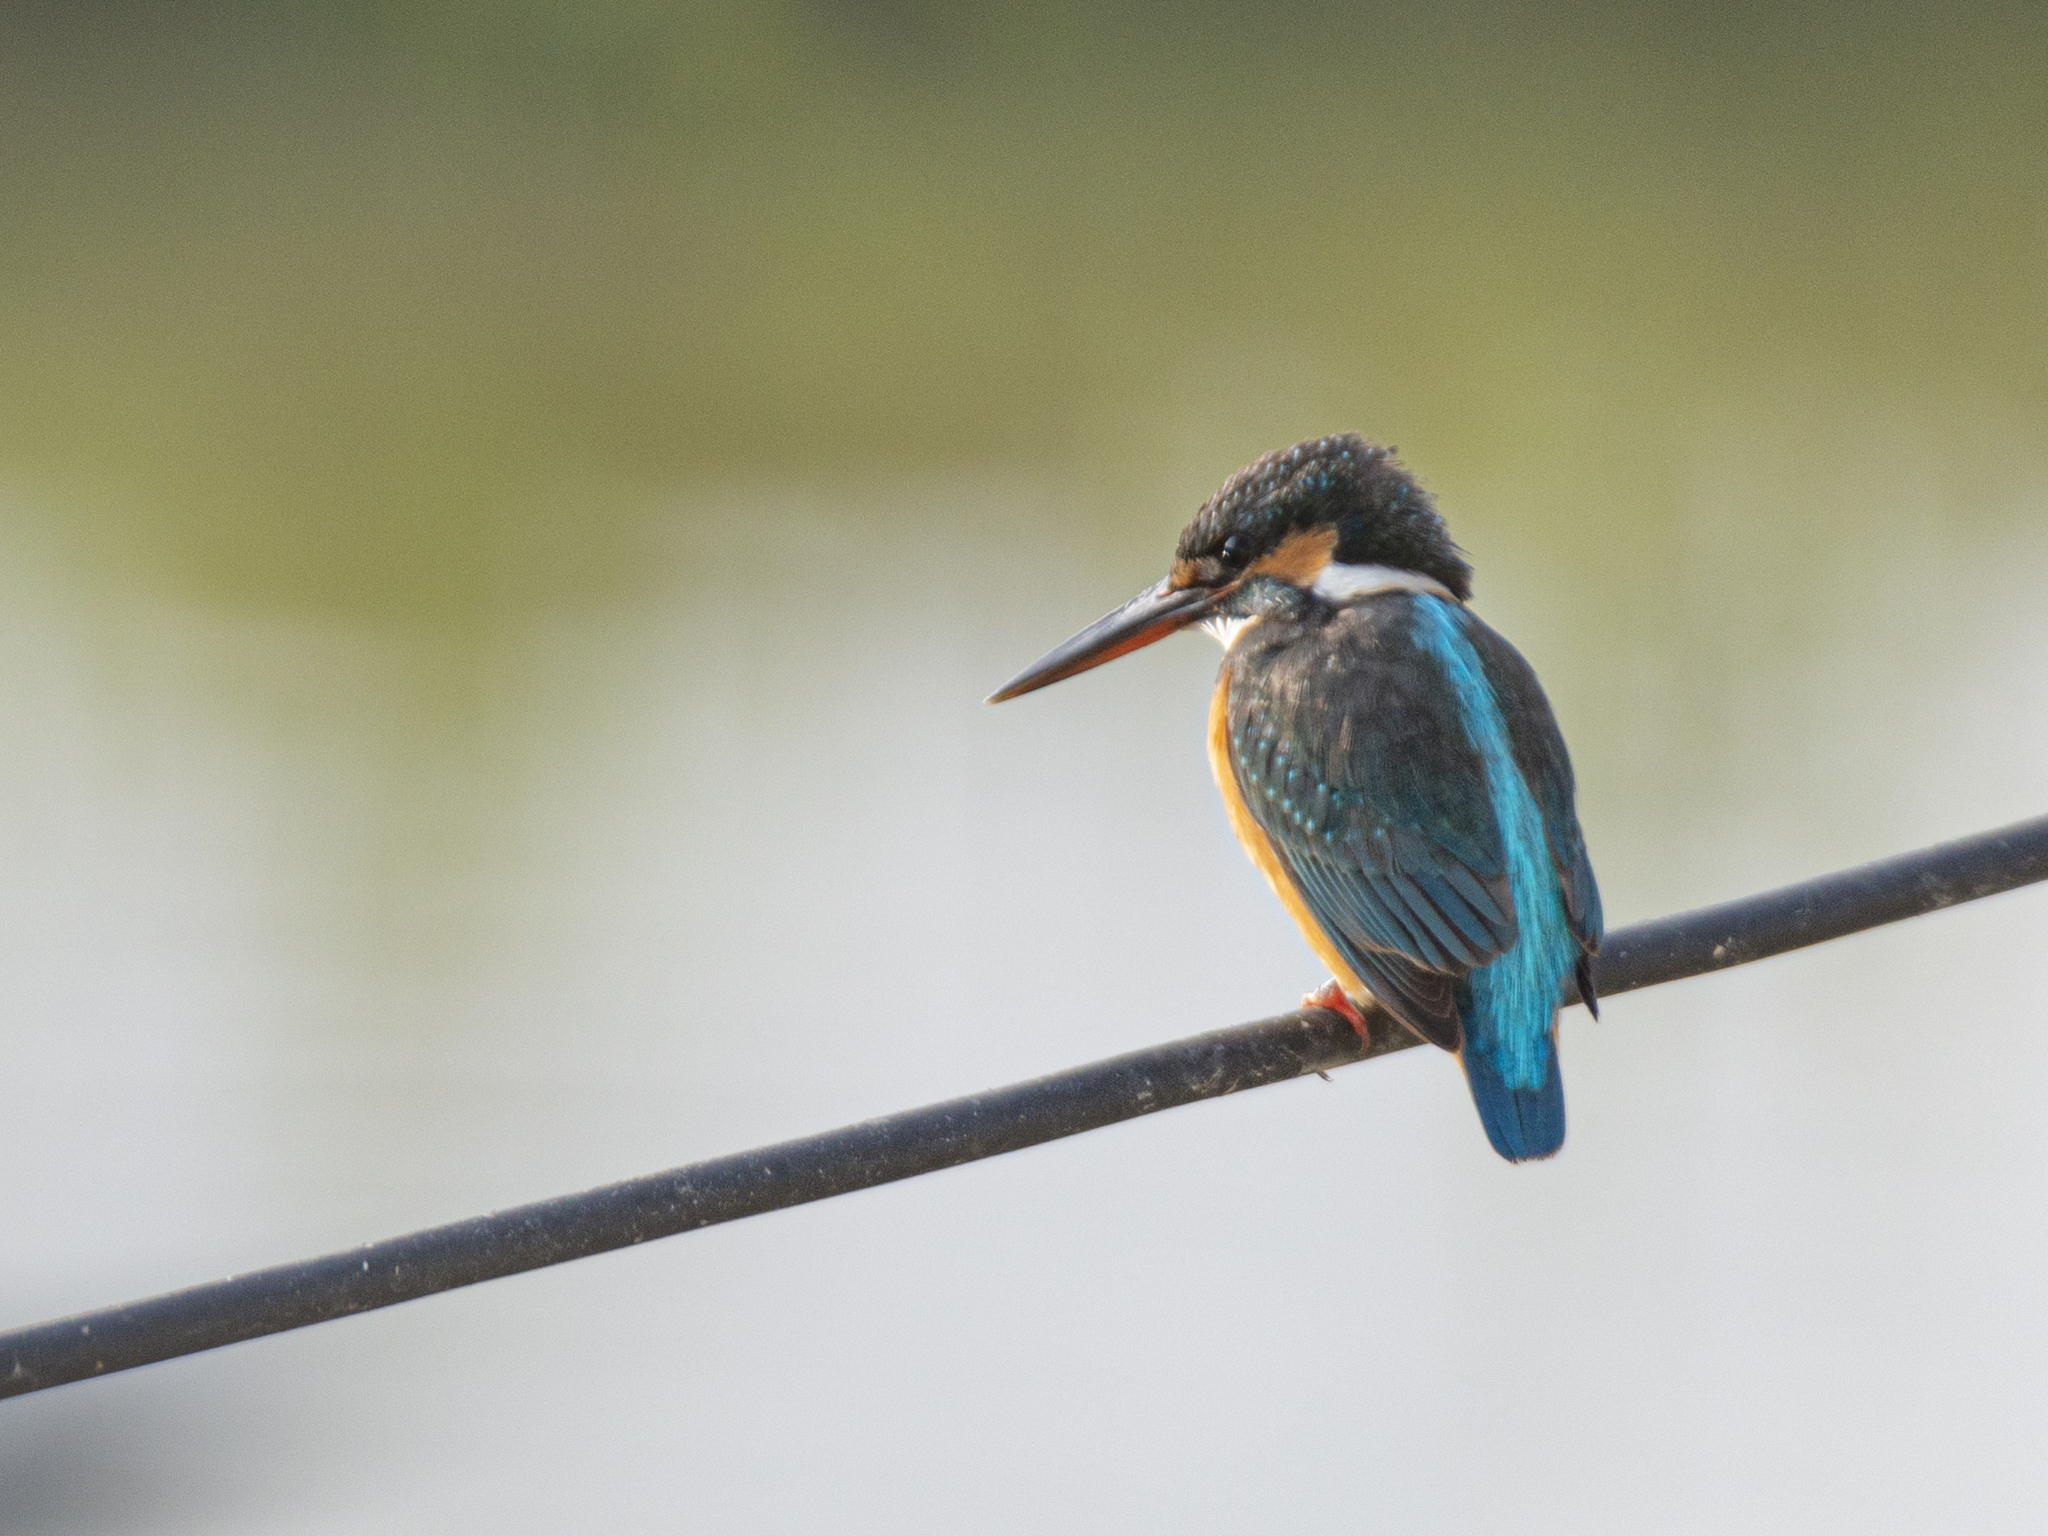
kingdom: Animalia
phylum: Chordata
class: Aves
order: Coraciiformes
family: Alcedinidae
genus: Alcedo
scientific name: Alcedo atthis
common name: Common kingfisher
